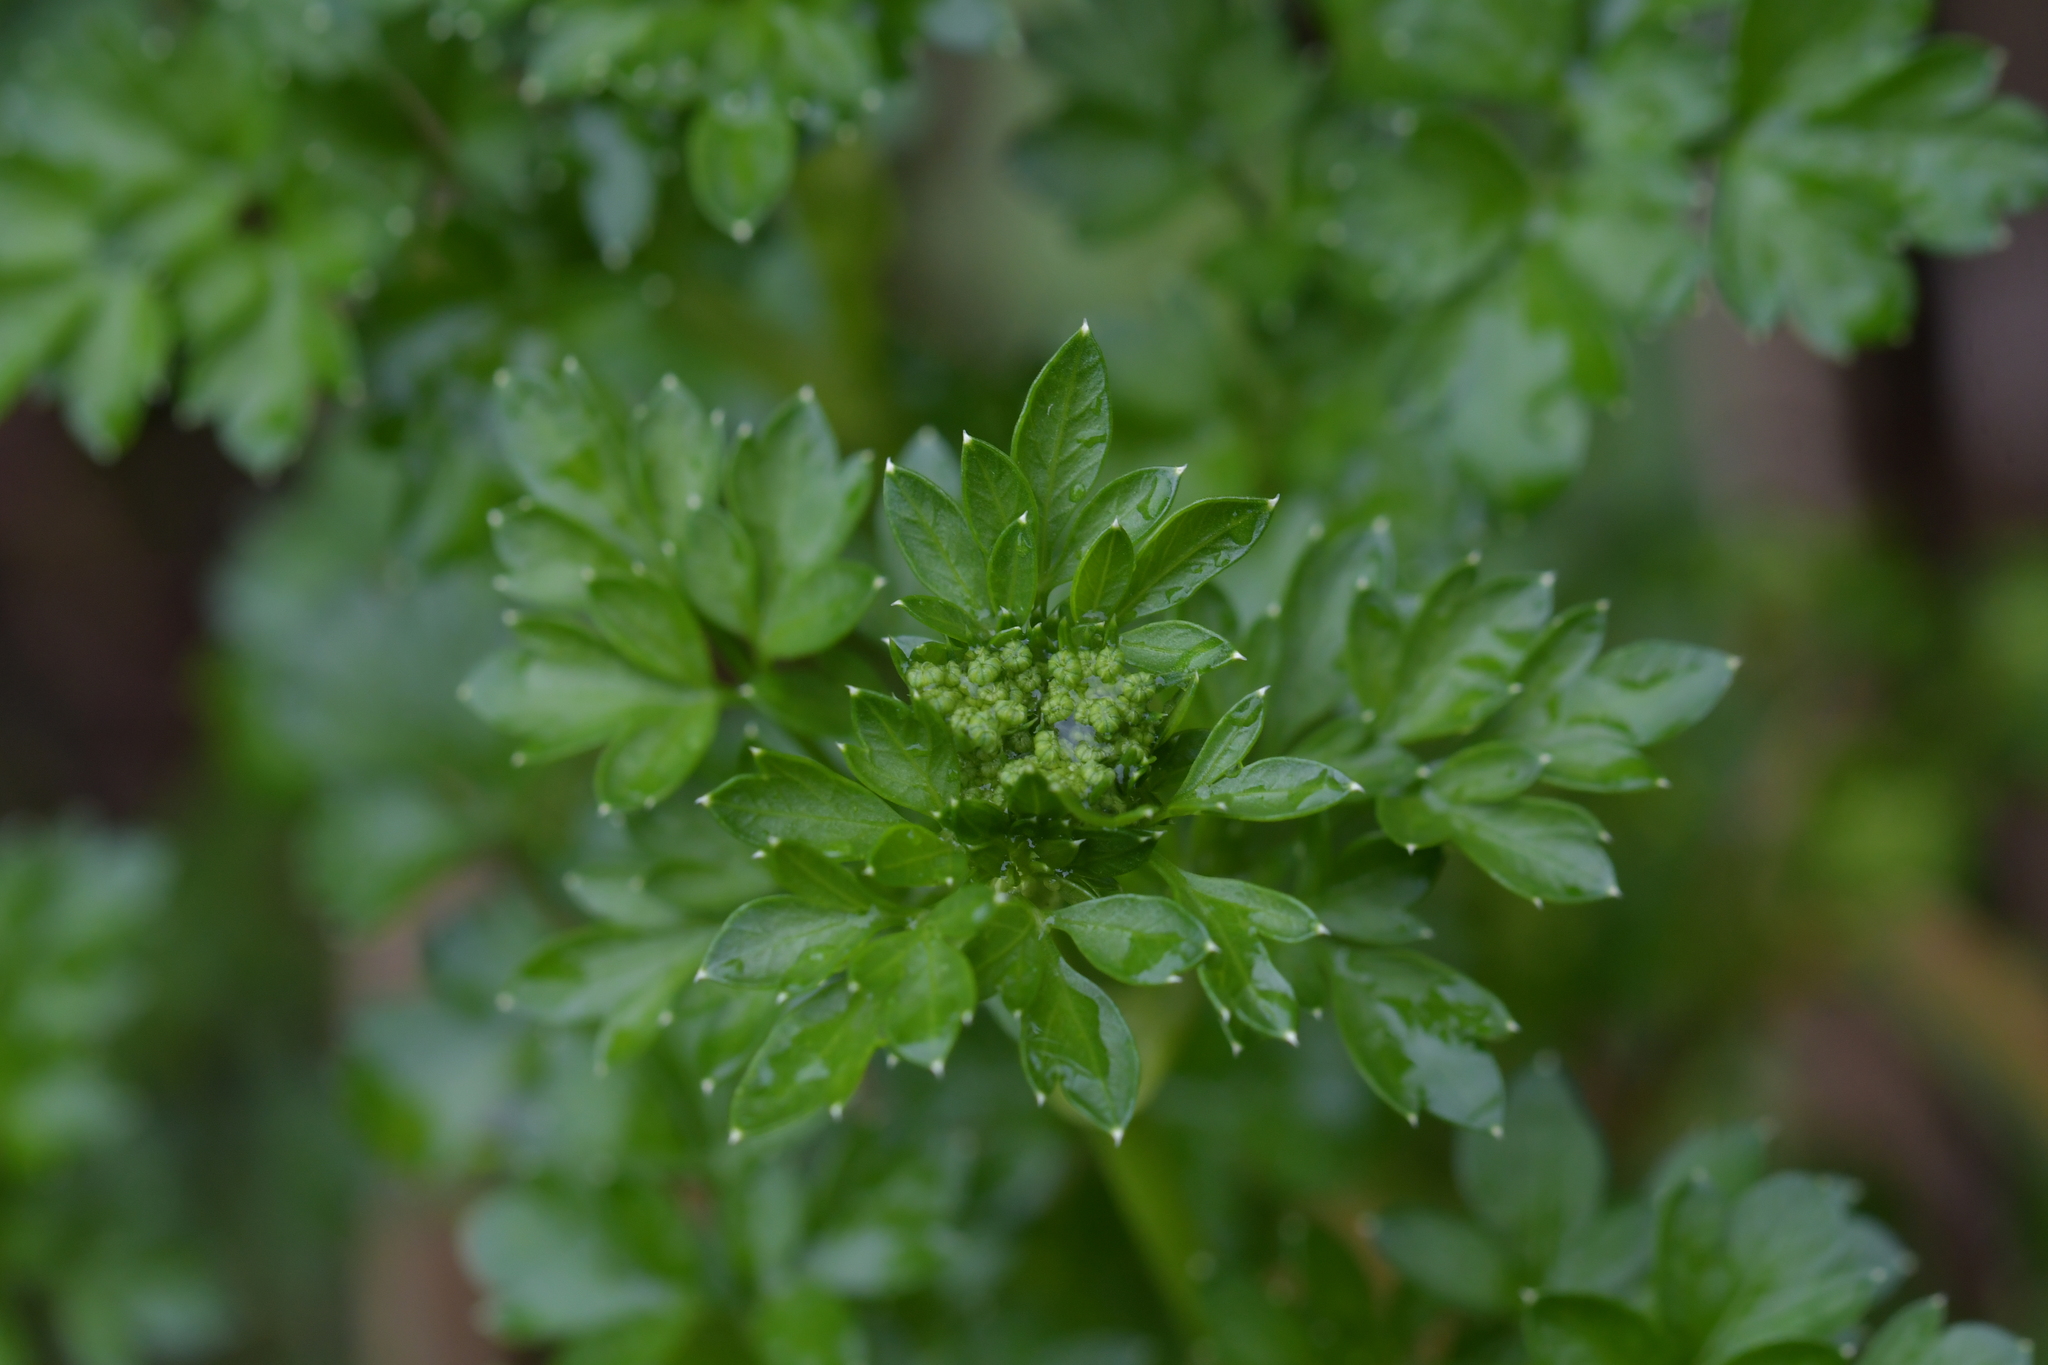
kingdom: Plantae
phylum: Tracheophyta
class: Magnoliopsida
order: Apiales
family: Apiaceae
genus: Petroselinum
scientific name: Petroselinum crispum
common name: Parsley
